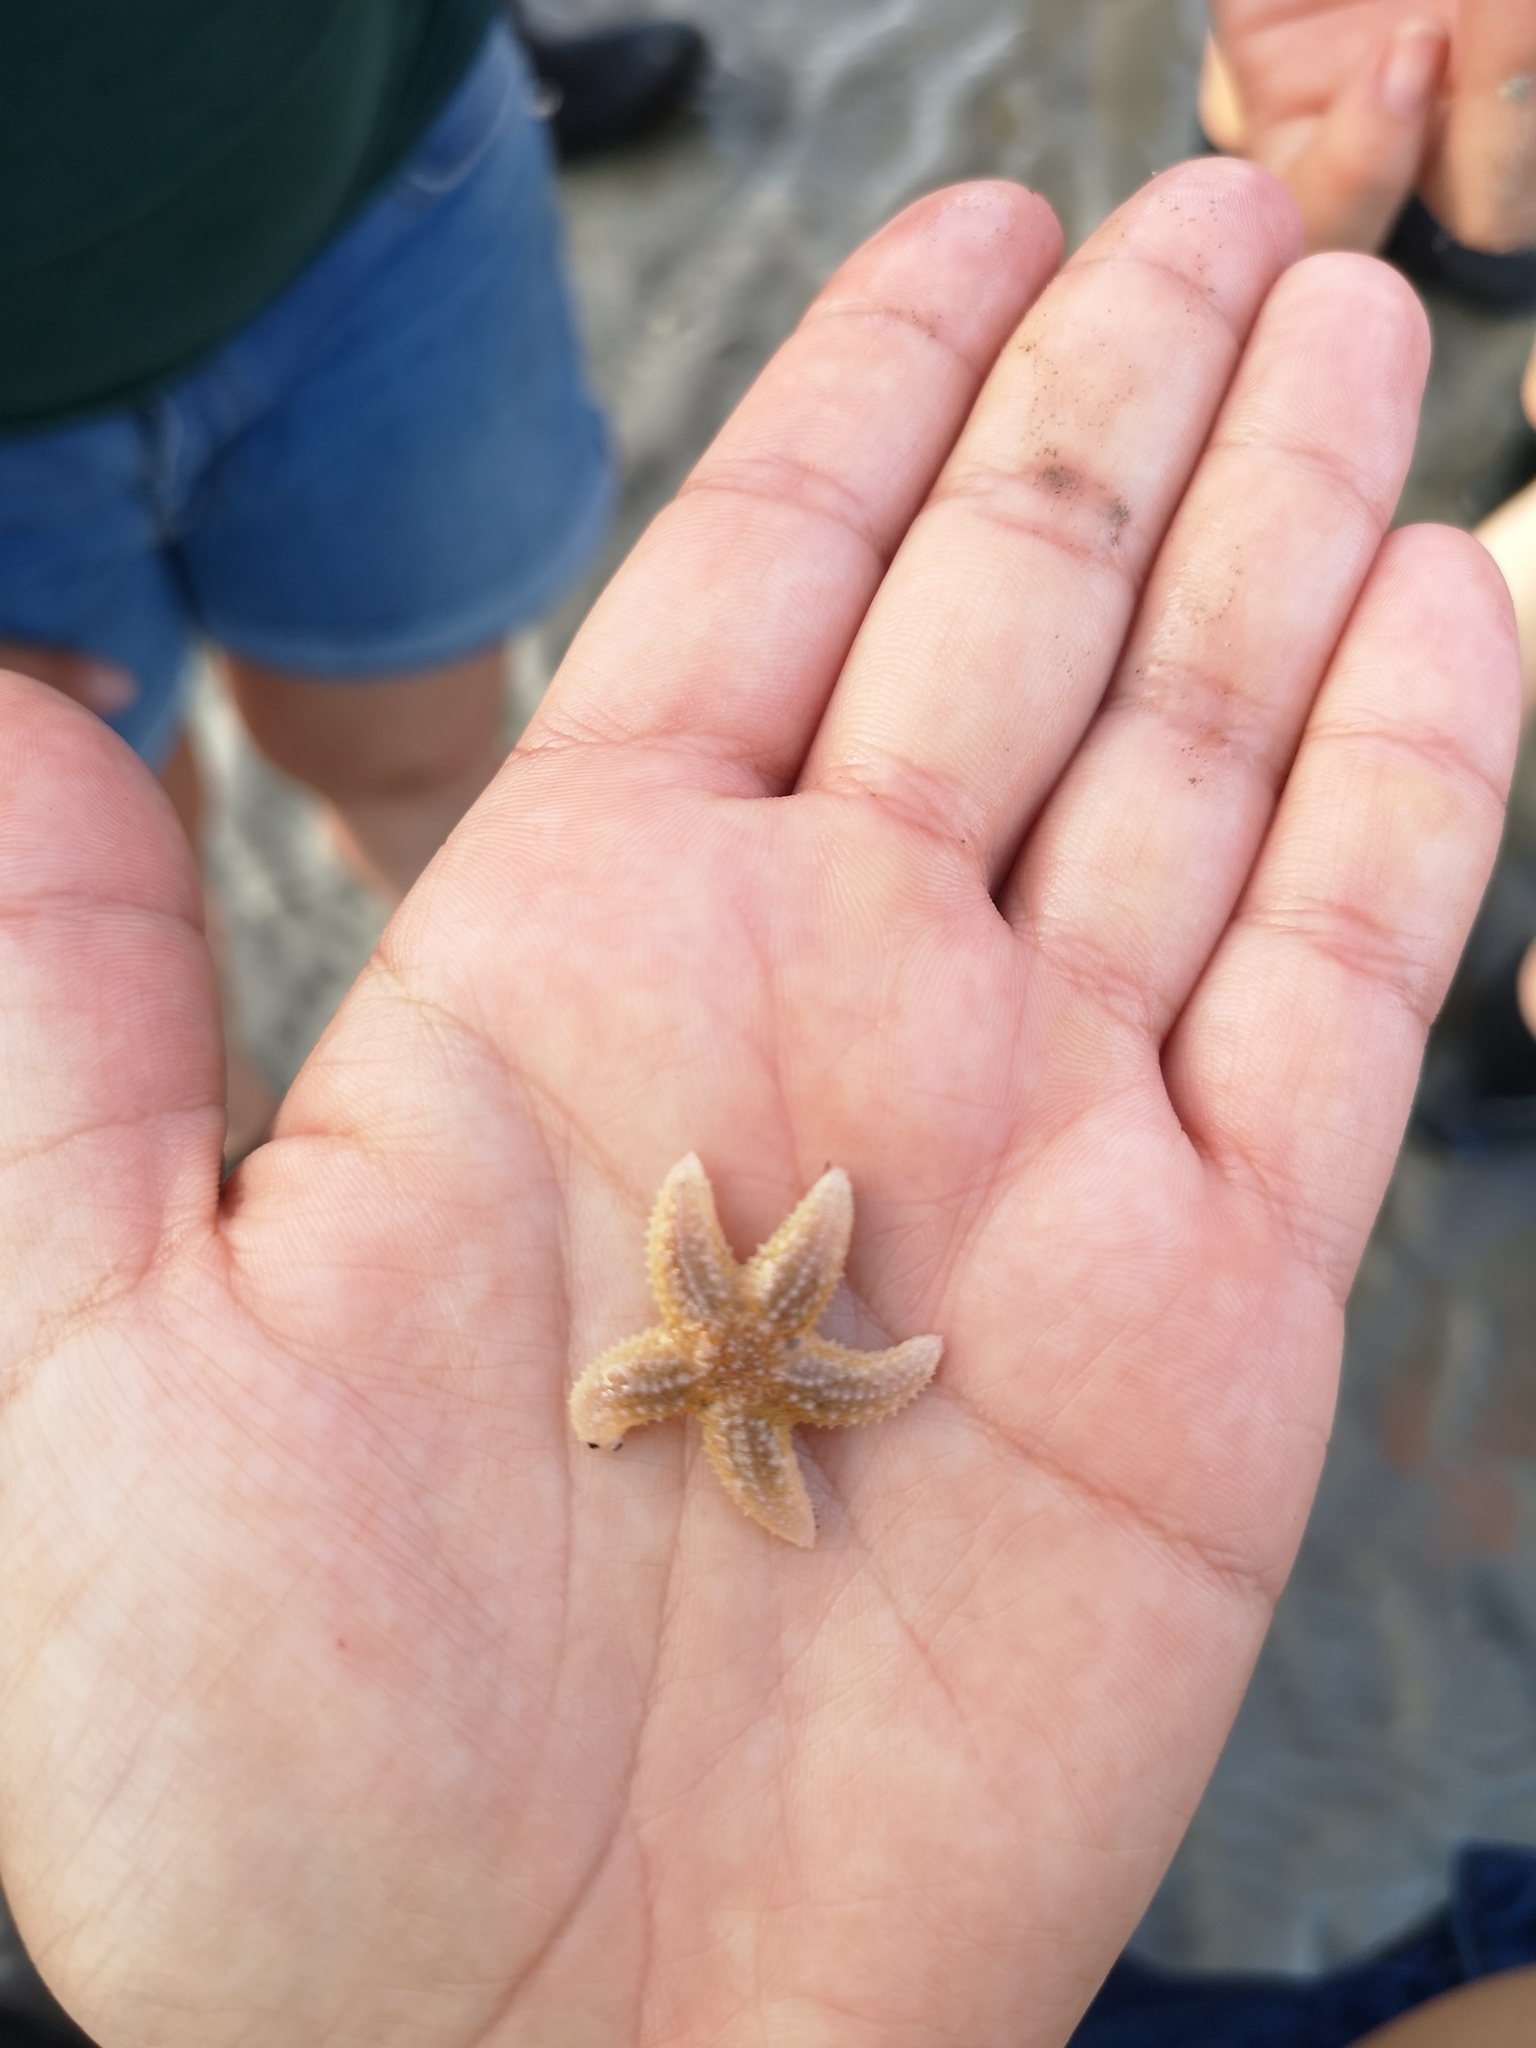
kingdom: Animalia
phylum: Echinodermata
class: Asteroidea
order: Forcipulatida
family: Asteriidae
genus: Asterias
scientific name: Asterias rubens
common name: Common starfish
